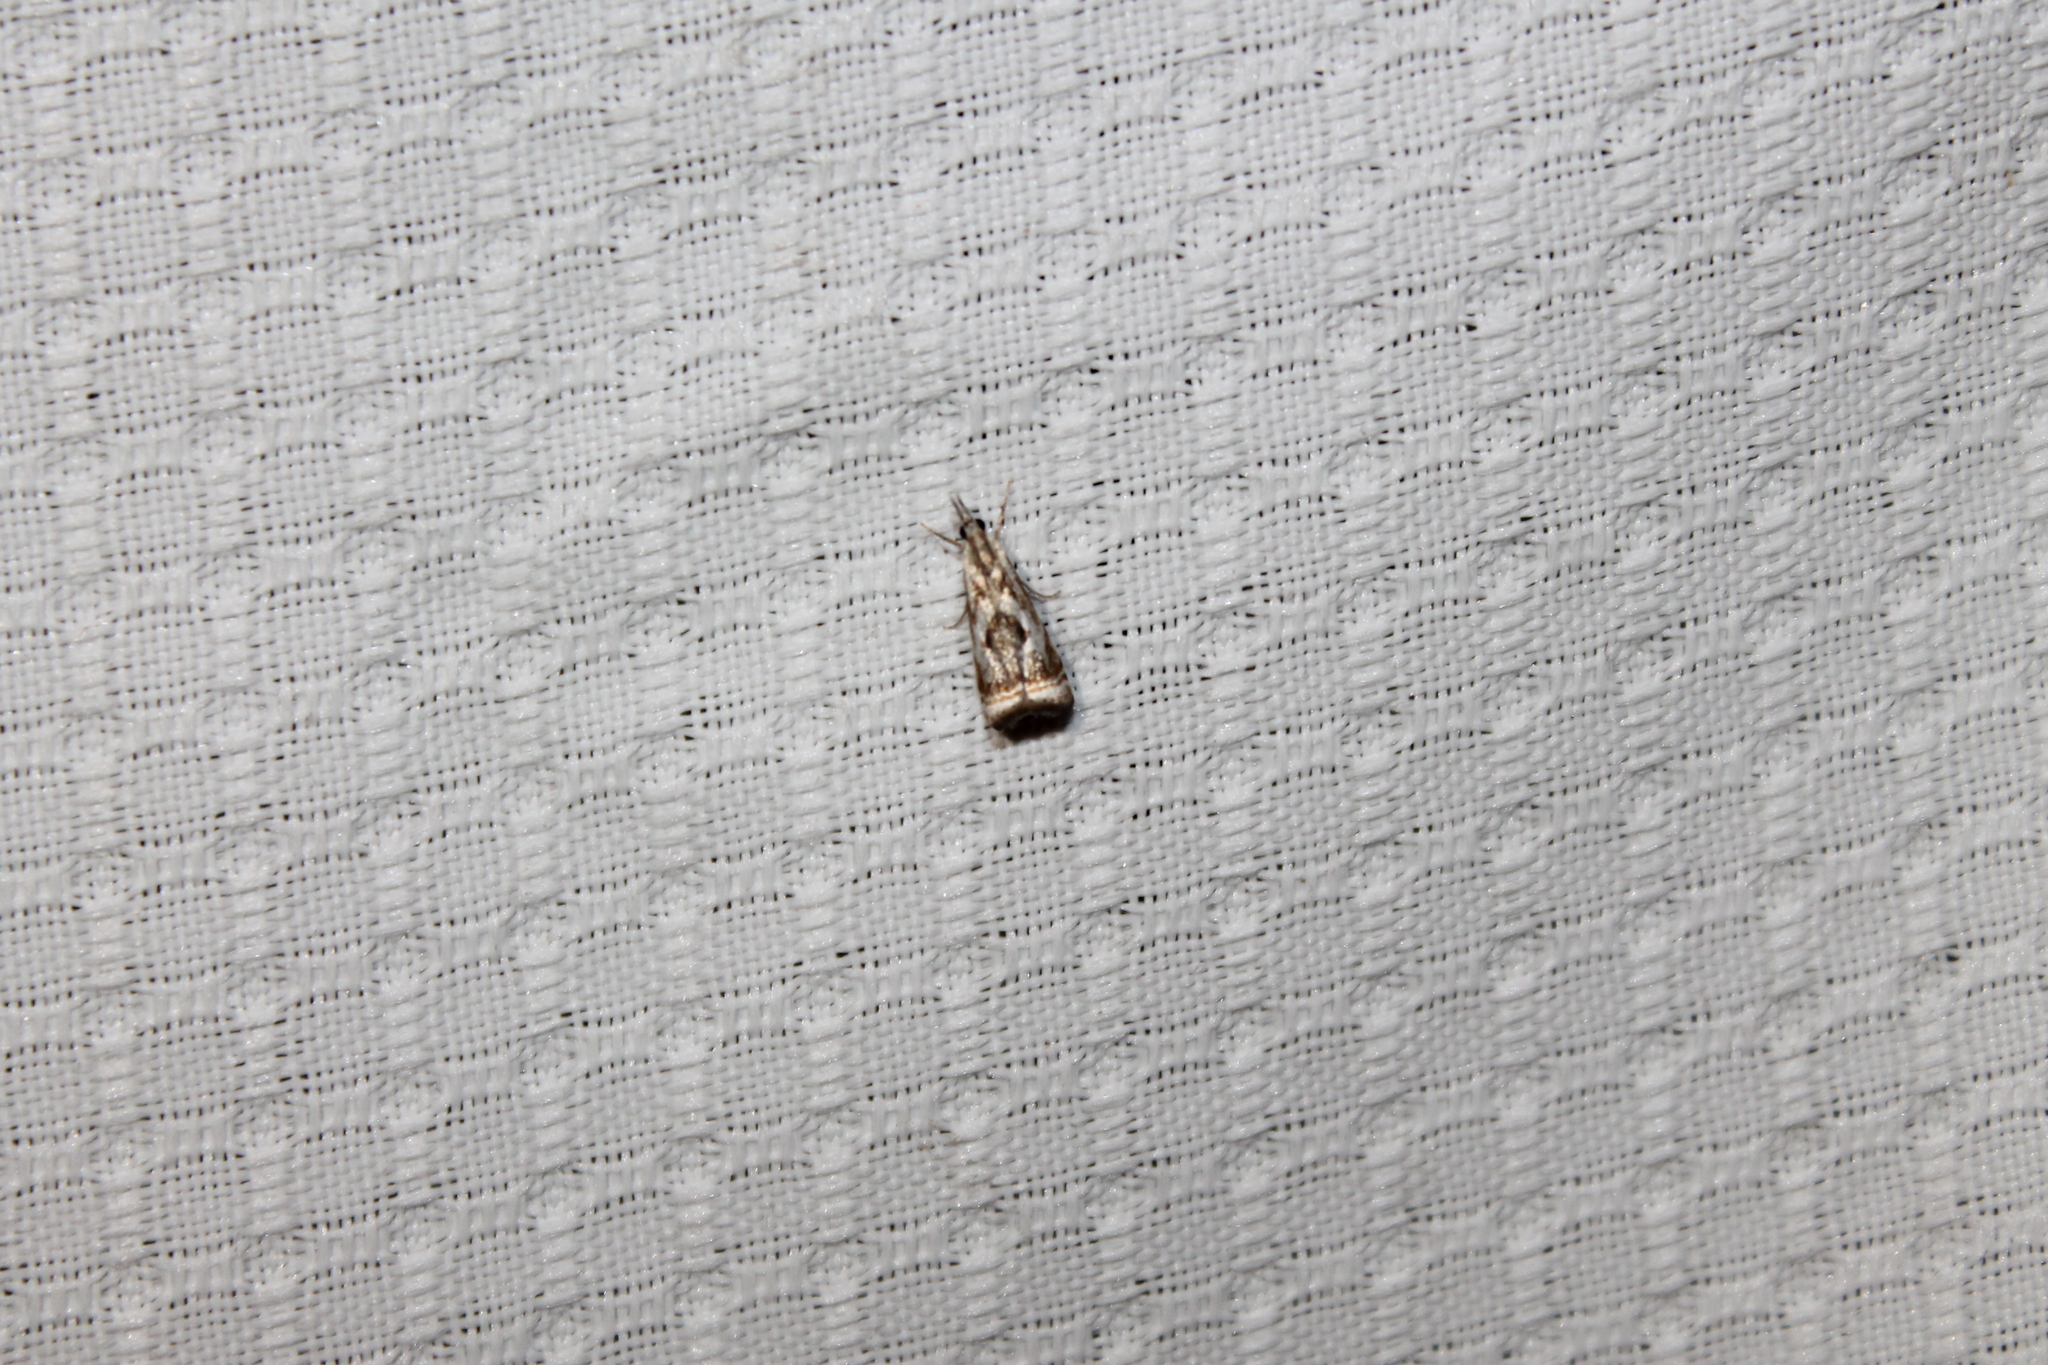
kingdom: Animalia
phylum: Arthropoda
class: Insecta
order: Lepidoptera
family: Crambidae
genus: Microcrambus
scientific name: Microcrambus elegans
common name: Elegant grass-veneer
